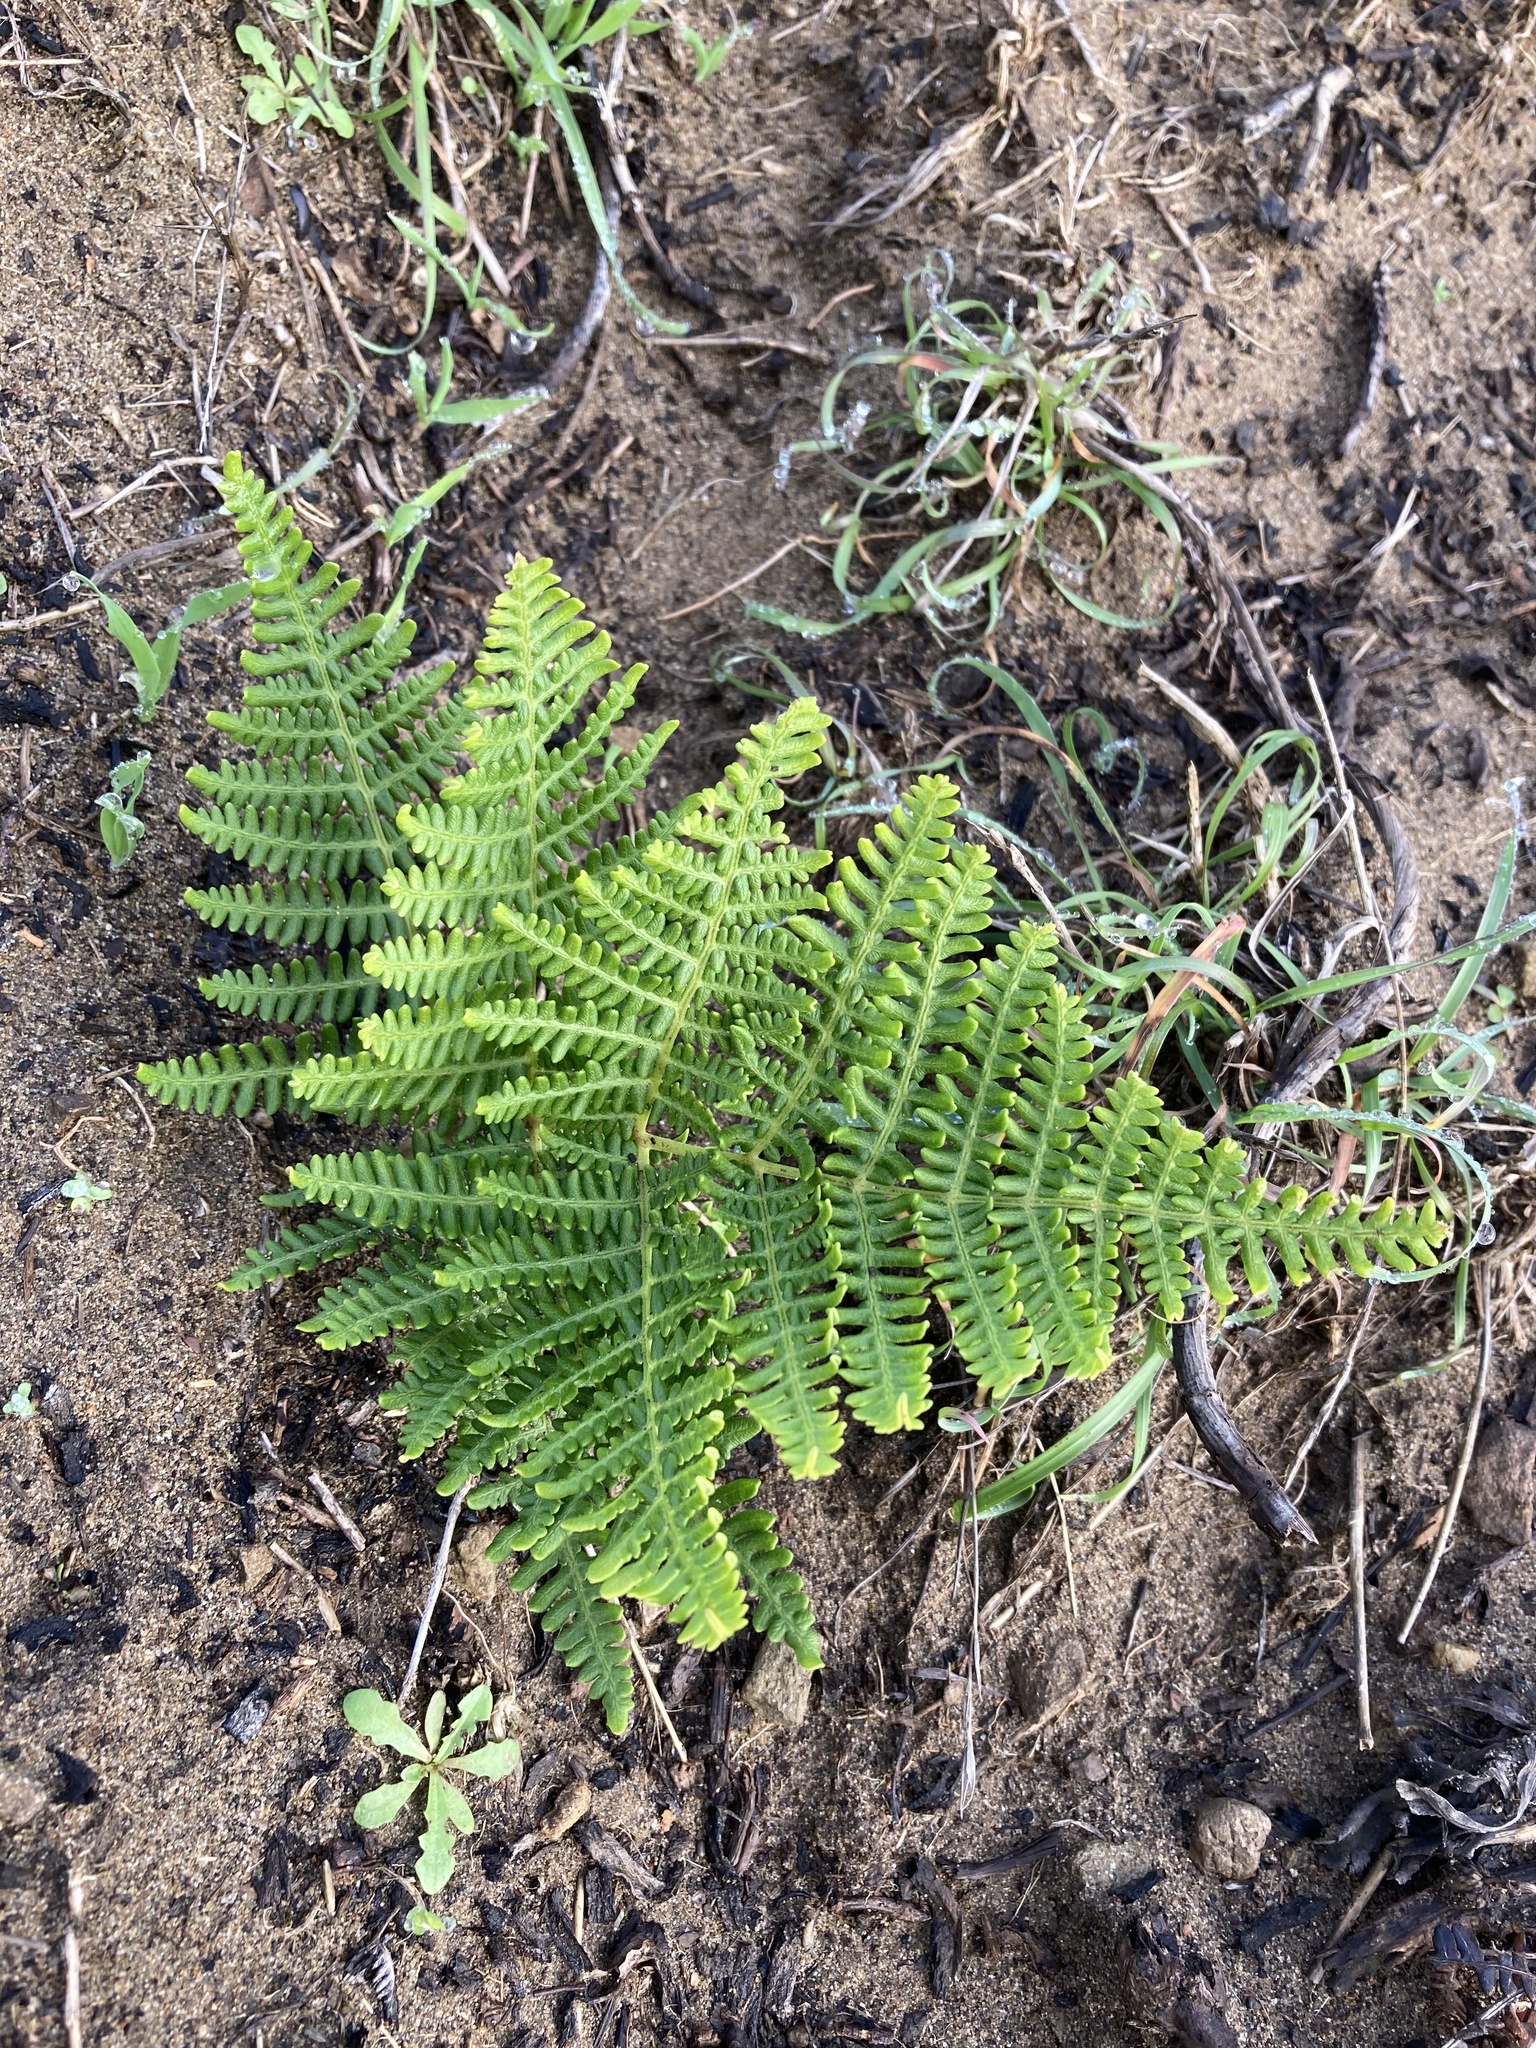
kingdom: Plantae
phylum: Tracheophyta
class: Polypodiopsida
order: Polypodiales
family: Dennstaedtiaceae
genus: Pteridium
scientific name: Pteridium aquilinum
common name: Bracken
